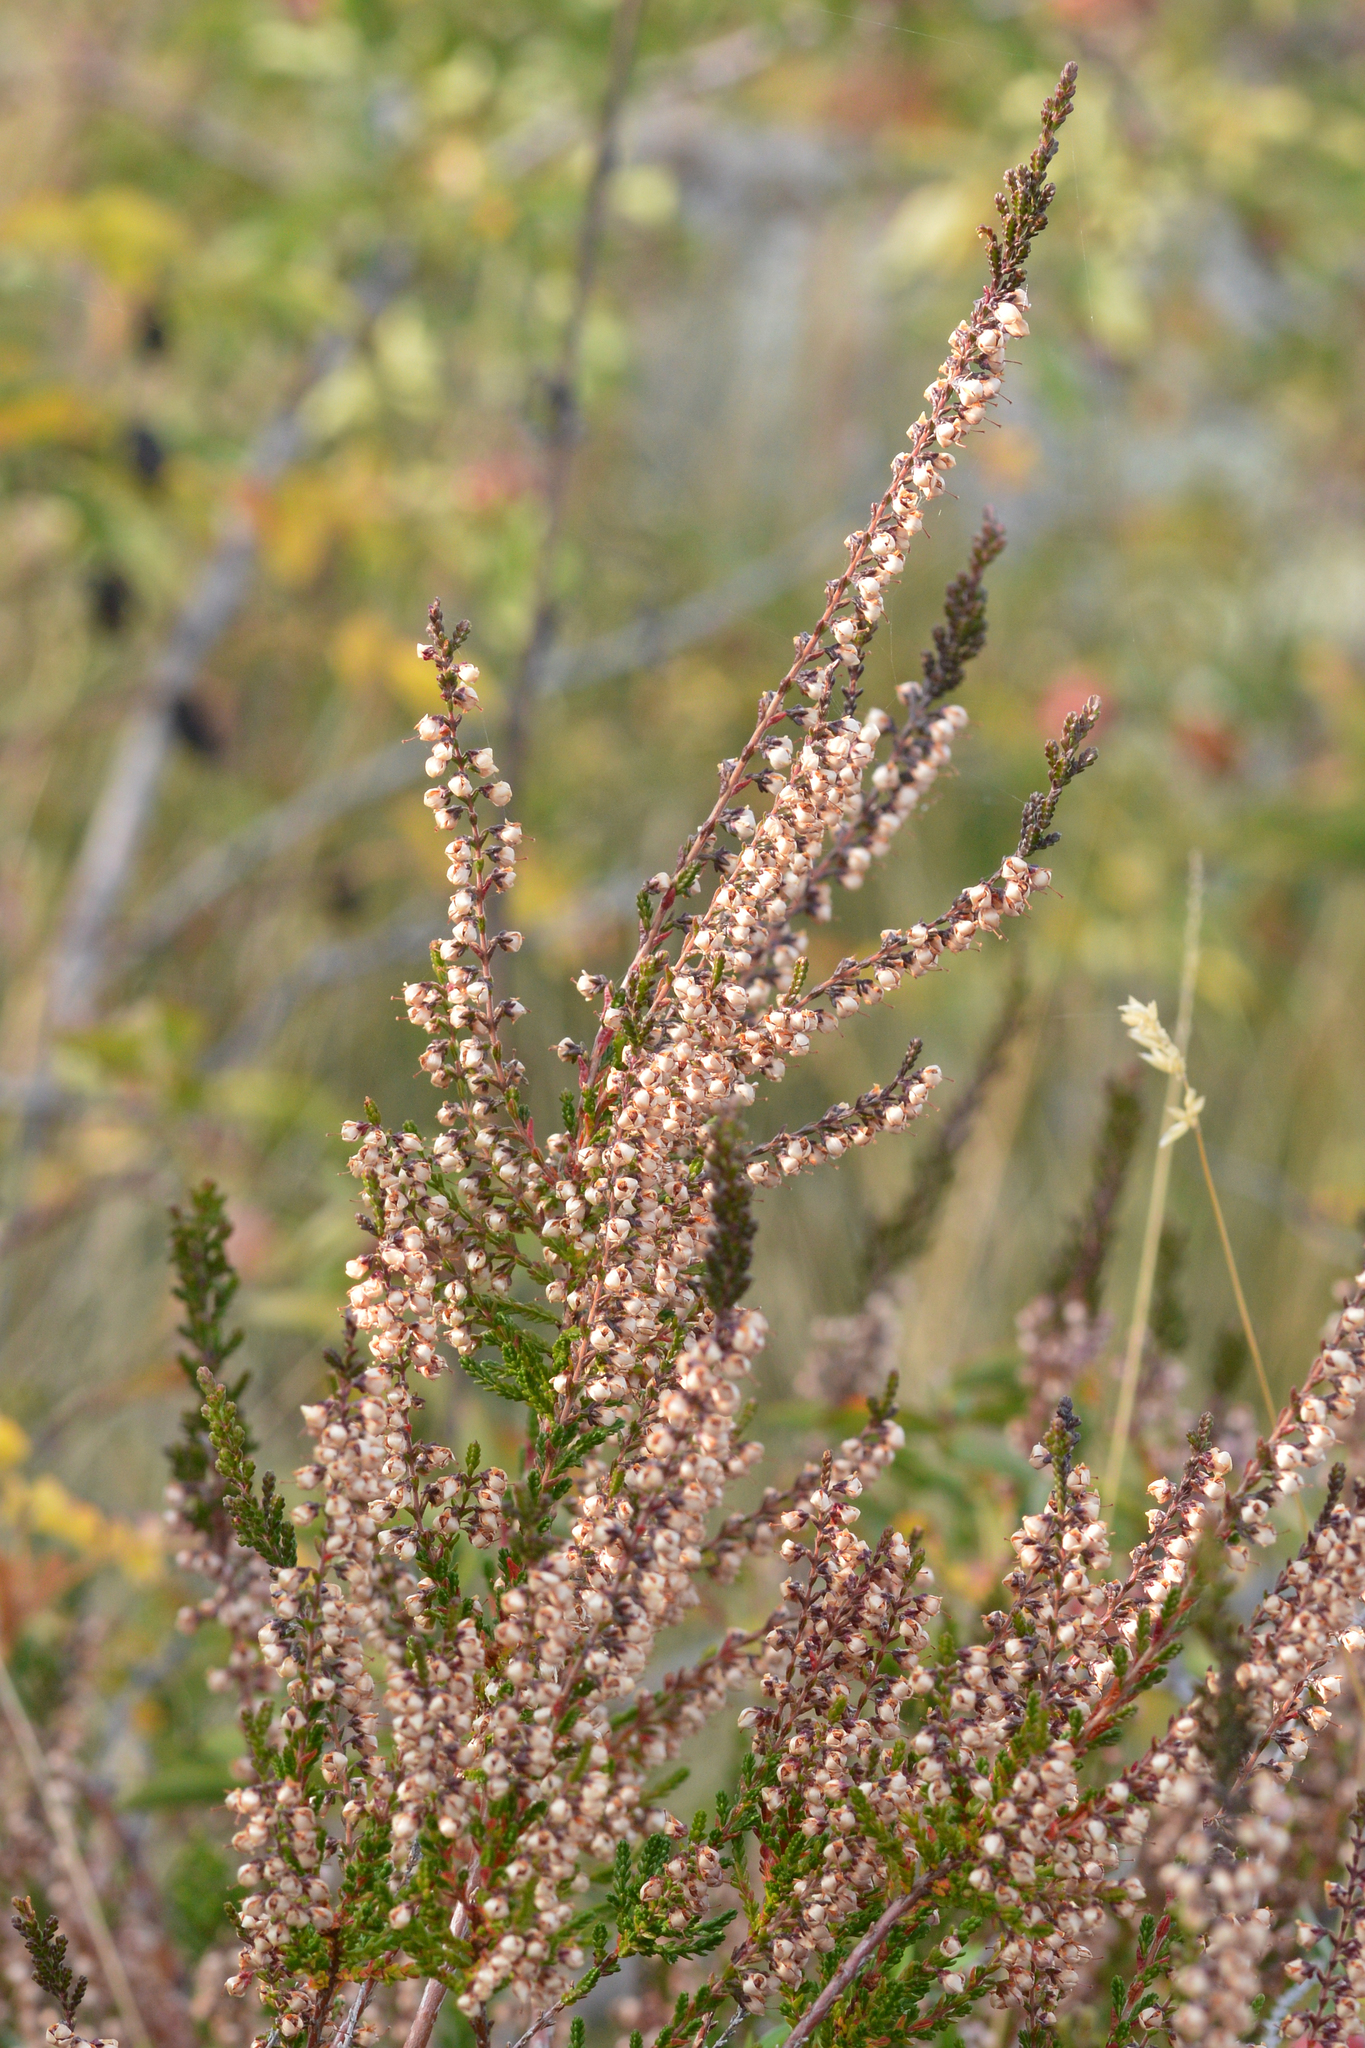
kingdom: Plantae
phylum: Tracheophyta
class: Magnoliopsida
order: Ericales
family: Ericaceae
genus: Calluna
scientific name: Calluna vulgaris
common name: Heather
